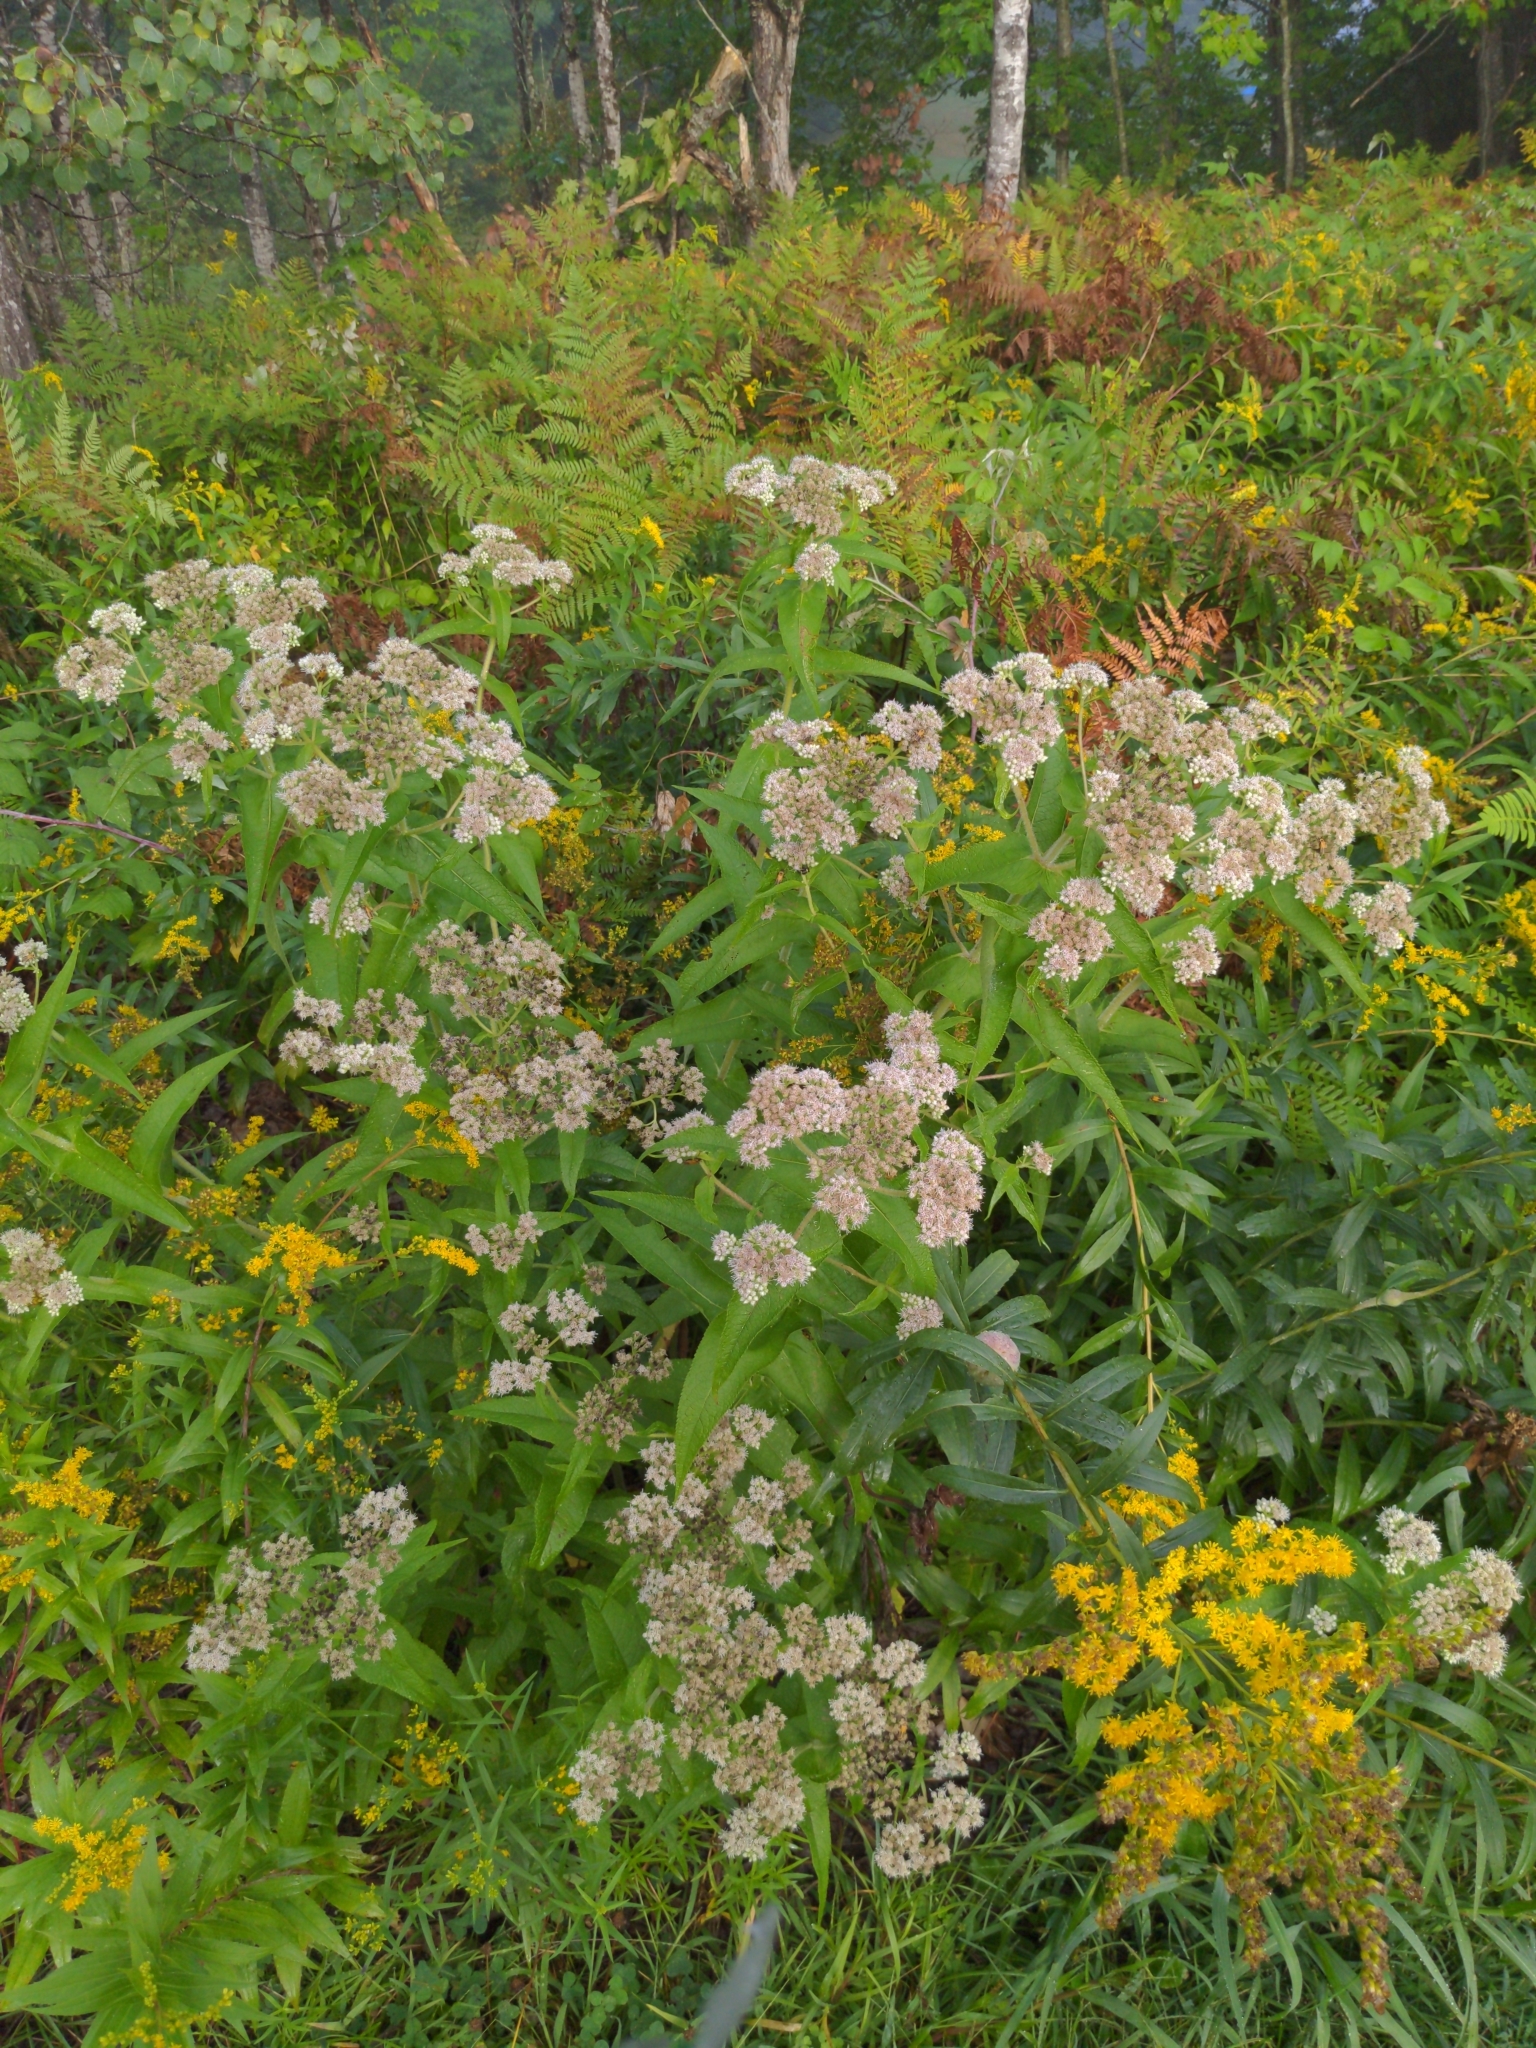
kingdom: Plantae
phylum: Tracheophyta
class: Magnoliopsida
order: Asterales
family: Asteraceae
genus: Eupatorium
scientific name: Eupatorium perfoliatum
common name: Boneset
